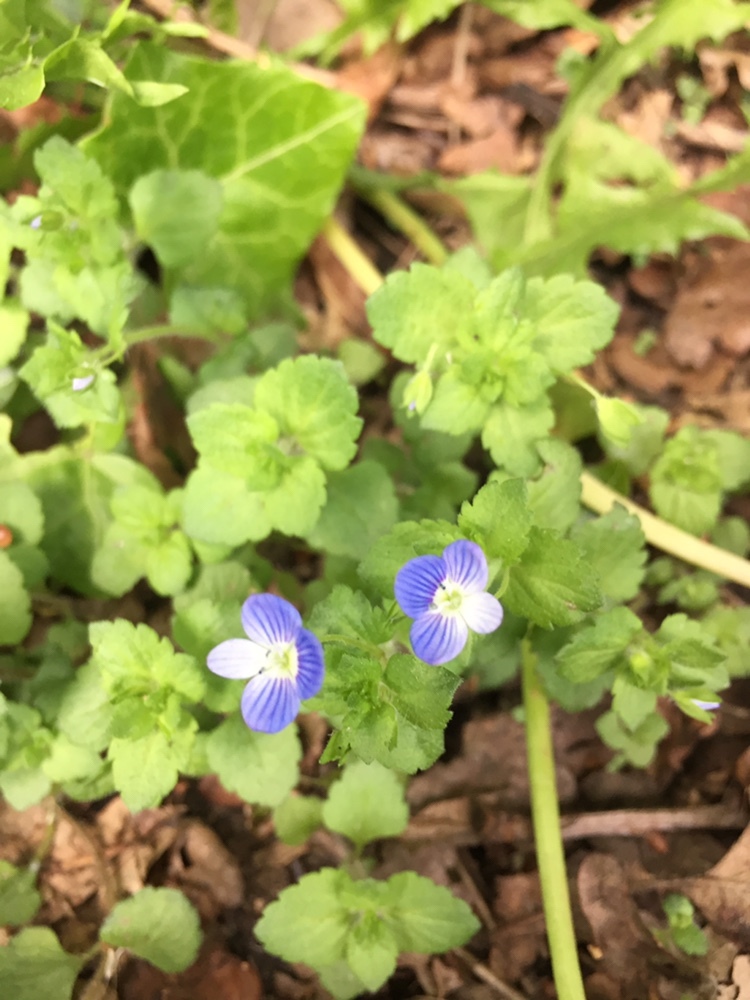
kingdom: Plantae
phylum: Tracheophyta
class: Magnoliopsida
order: Lamiales
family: Plantaginaceae
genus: Veronica
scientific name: Veronica persica
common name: Common field-speedwell
